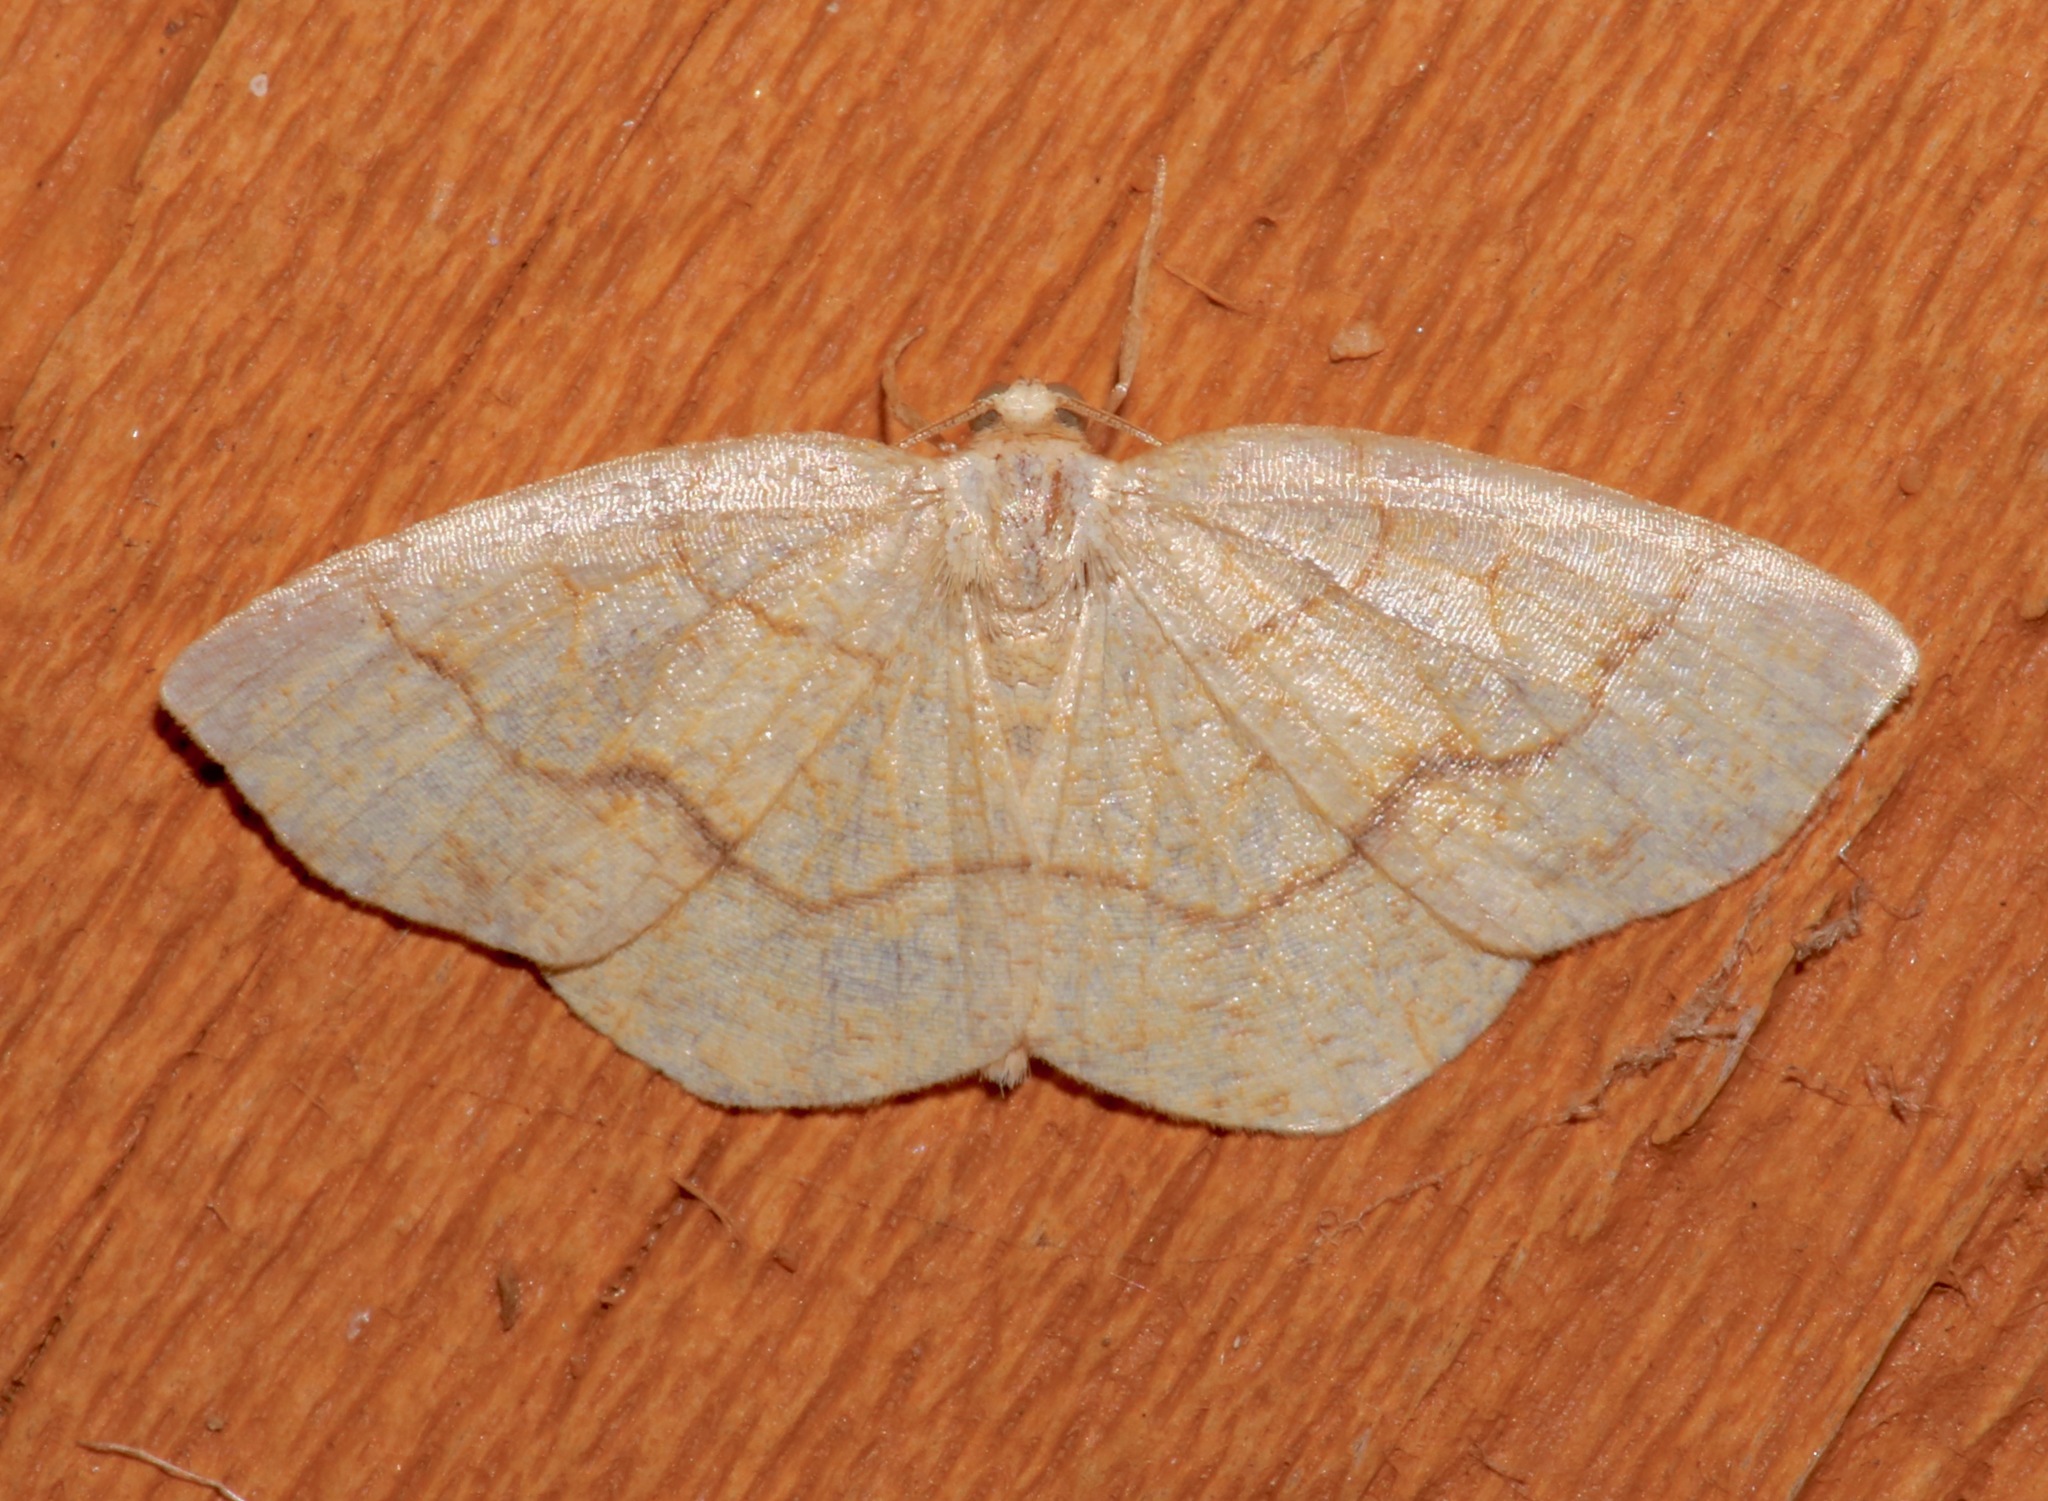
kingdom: Animalia
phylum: Arthropoda
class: Insecta
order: Lepidoptera
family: Geometridae
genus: Nematocampa
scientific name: Nematocampa resistaria
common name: Horned spanworm moth
